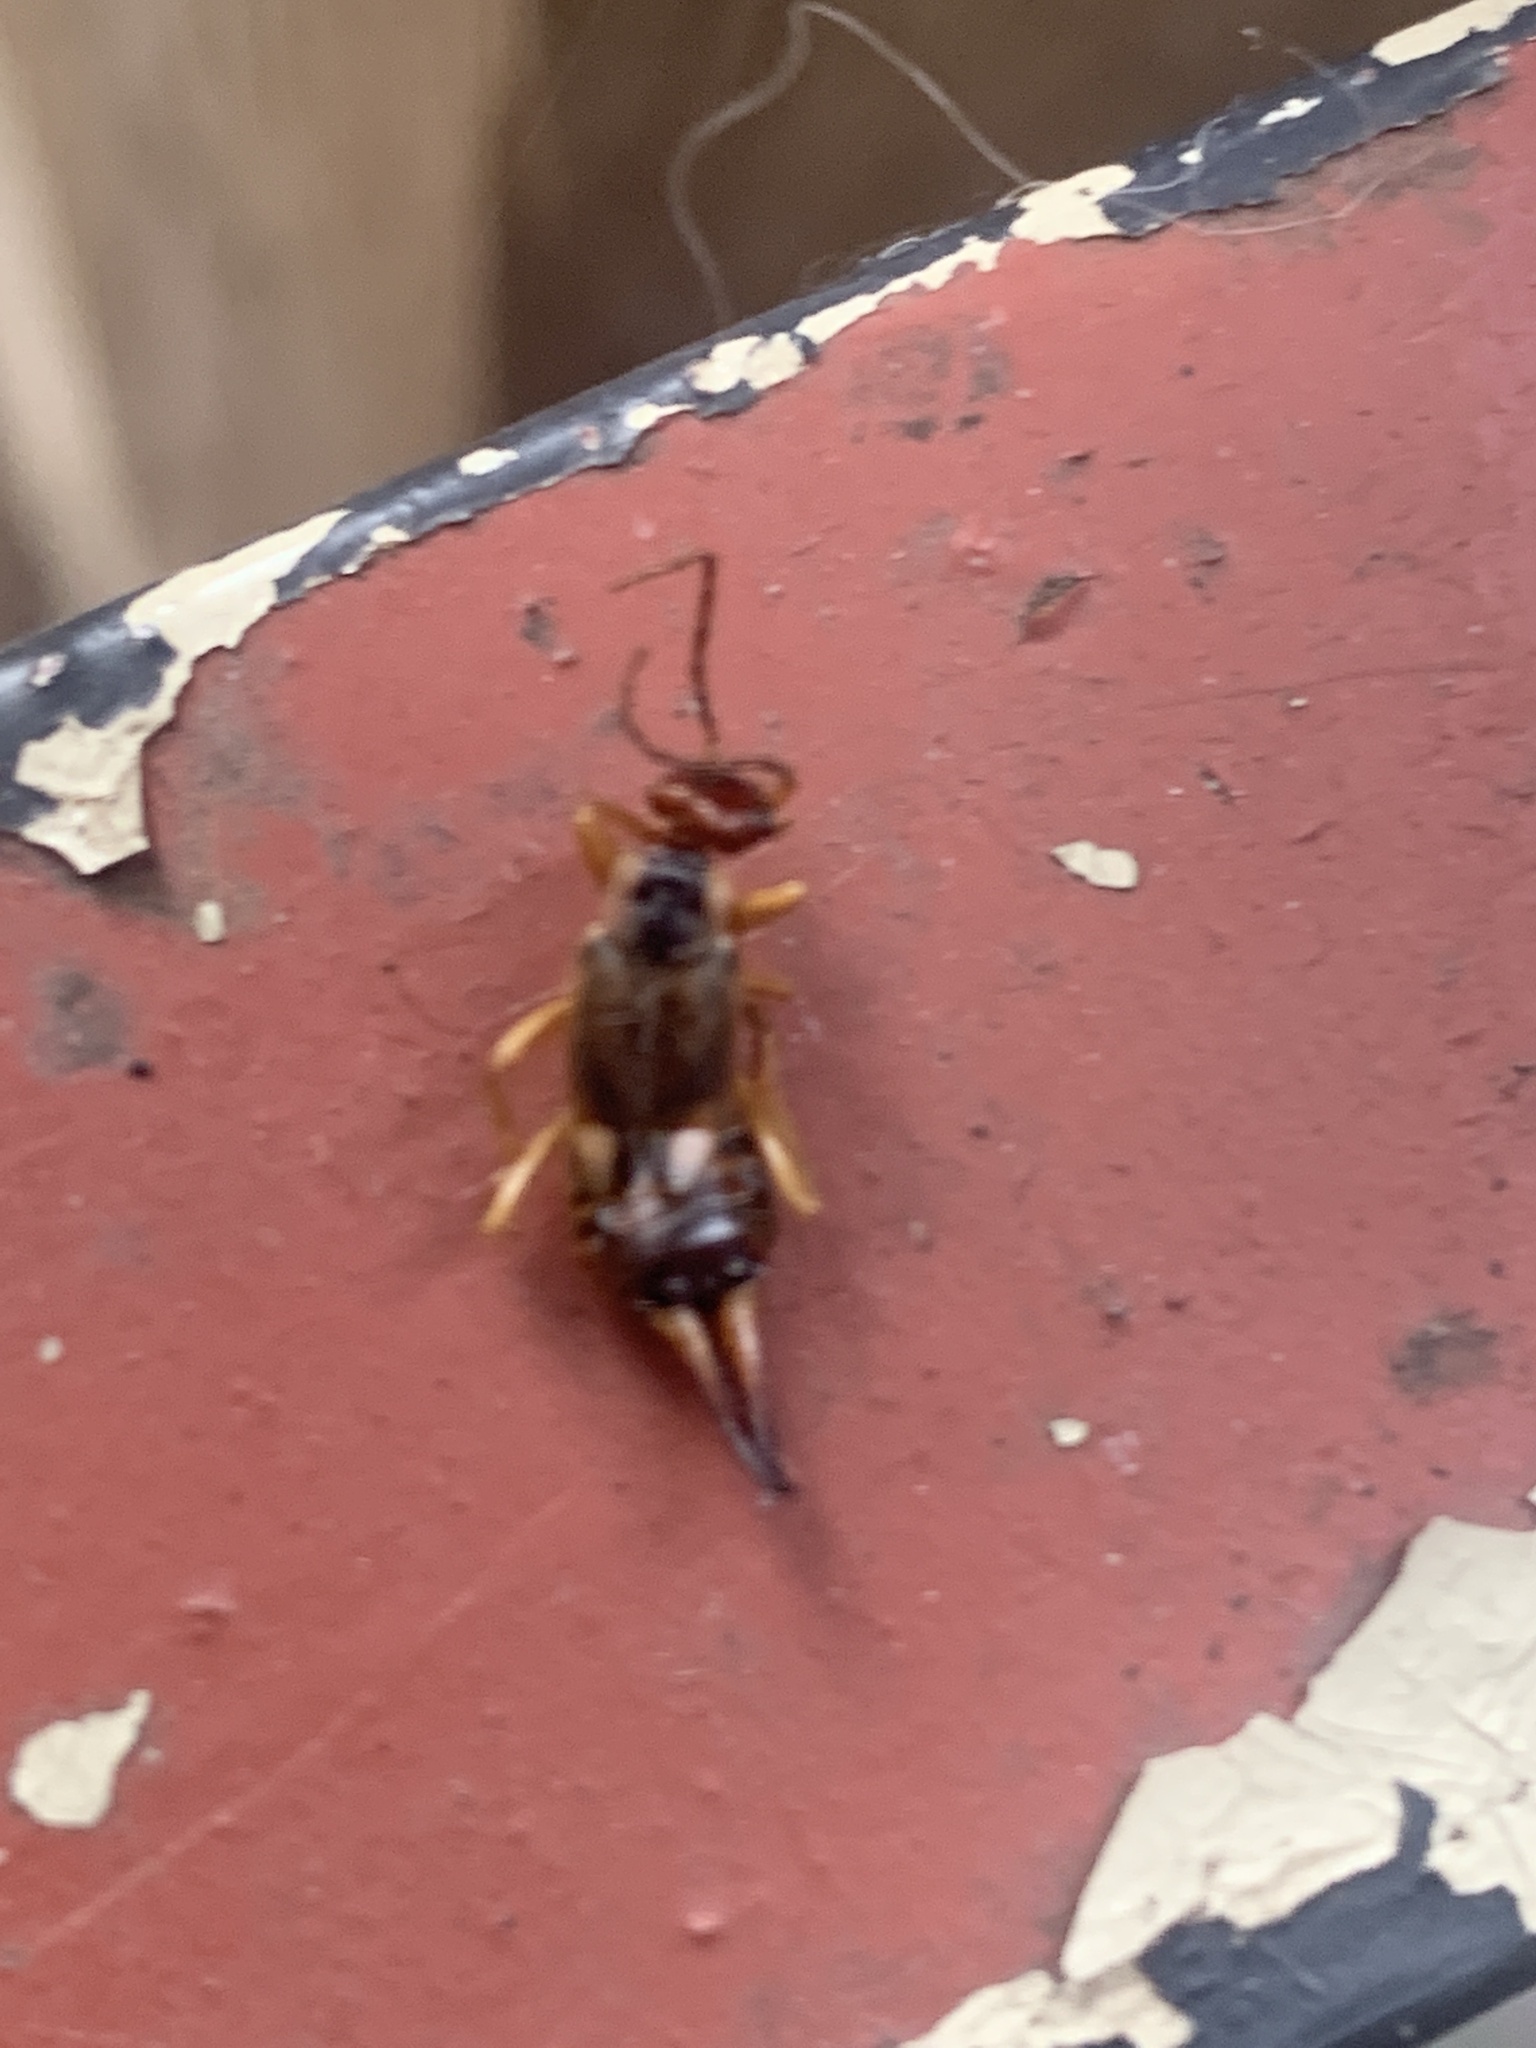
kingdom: Animalia
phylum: Arthropoda
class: Insecta
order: Dermaptera
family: Forficulidae
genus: Forficula
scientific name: Forficula
